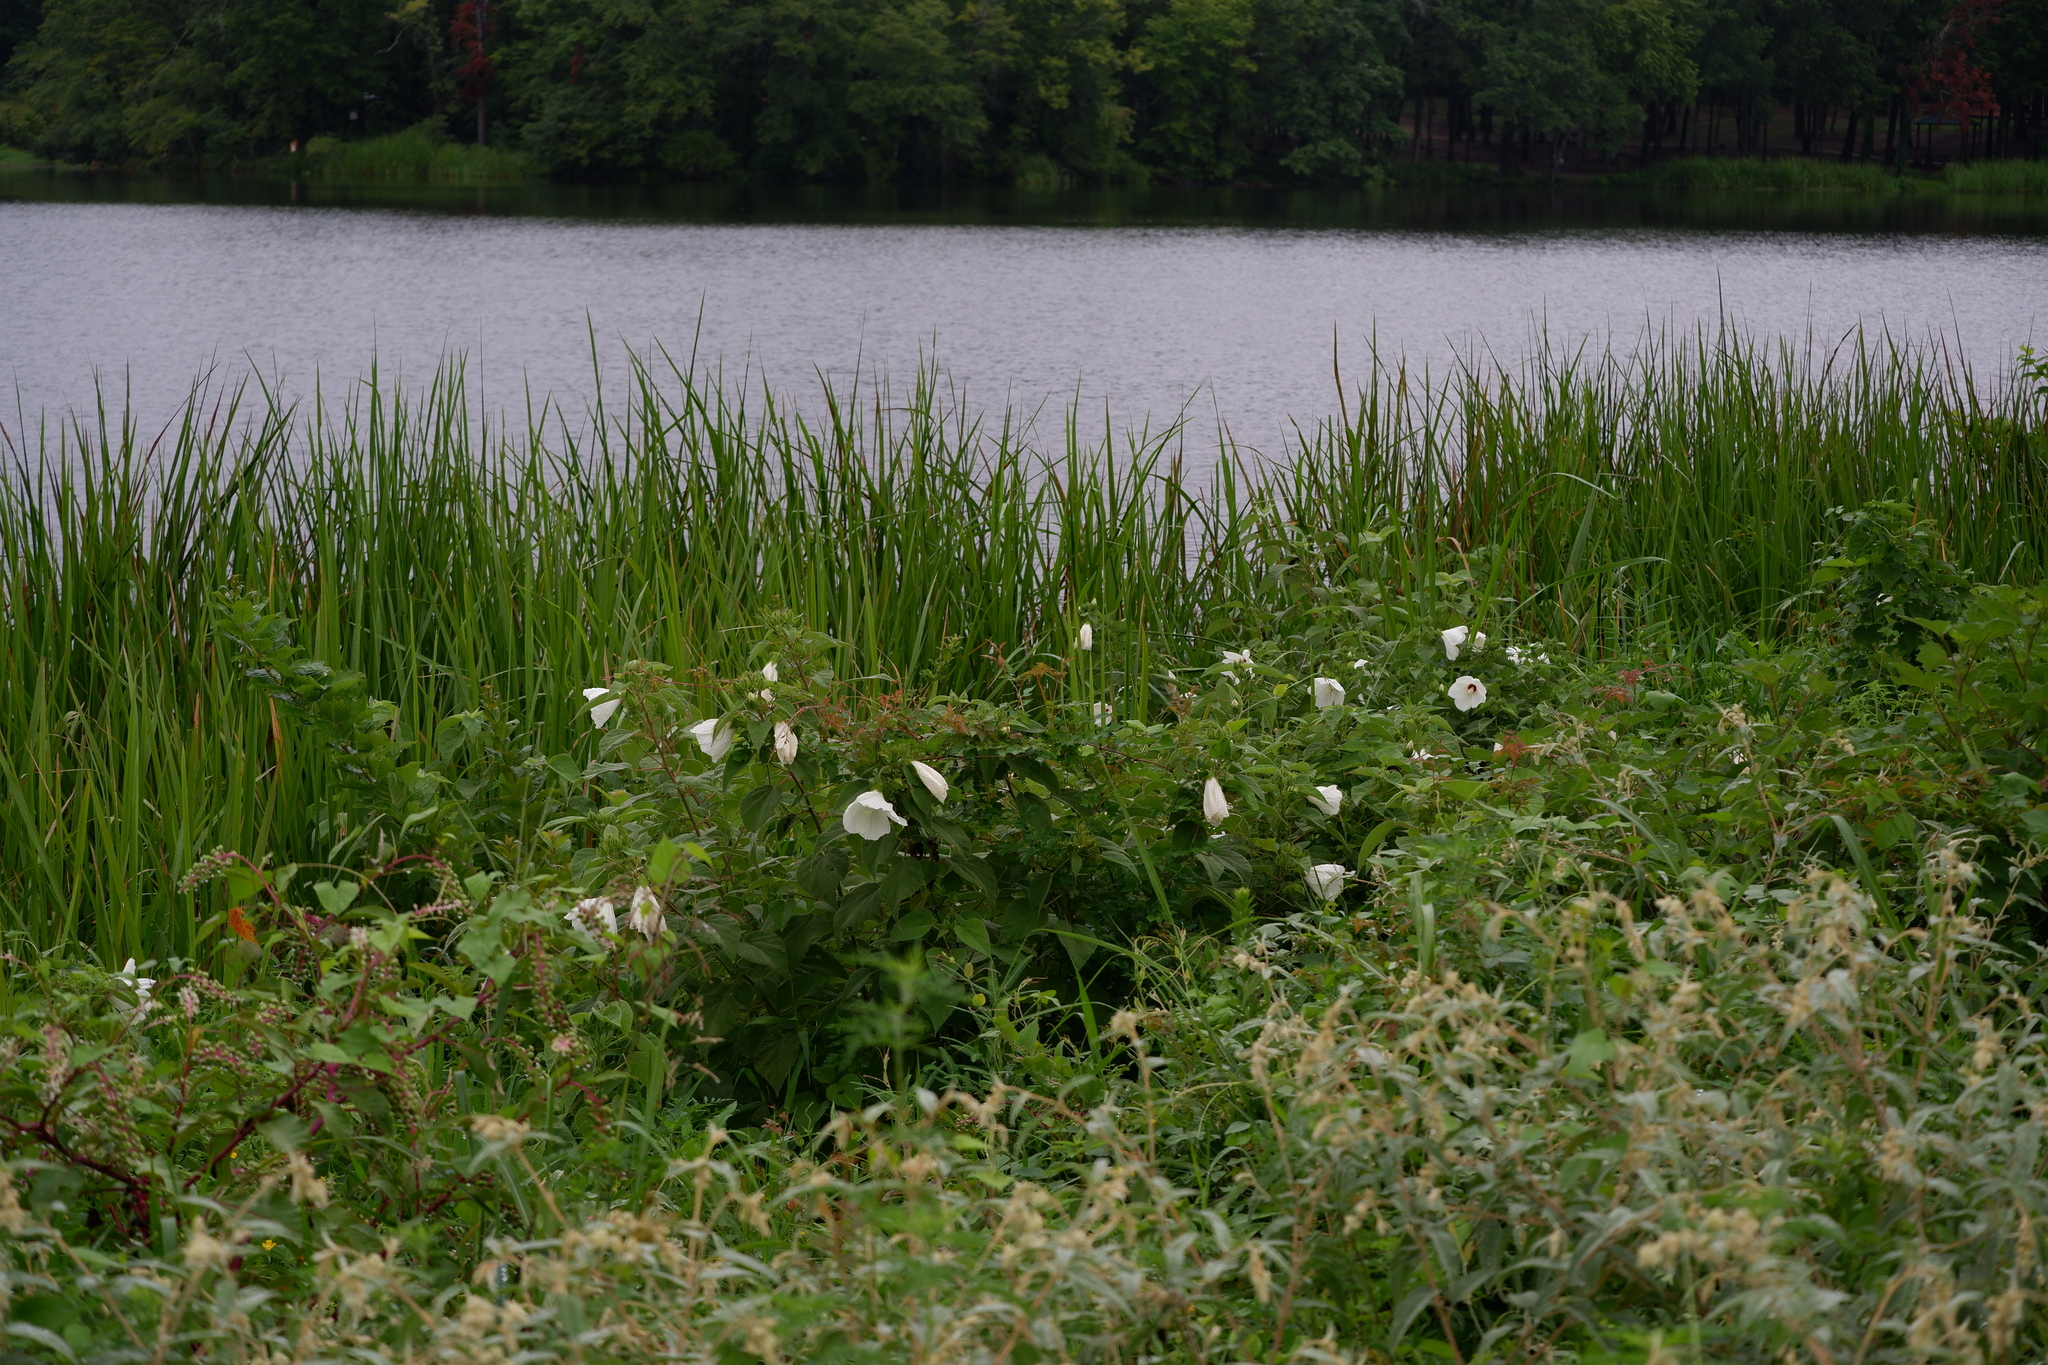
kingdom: Plantae
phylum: Tracheophyta
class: Magnoliopsida
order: Malvales
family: Malvaceae
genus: Hibiscus
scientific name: Hibiscus moscheutos
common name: Common rose-mallow
